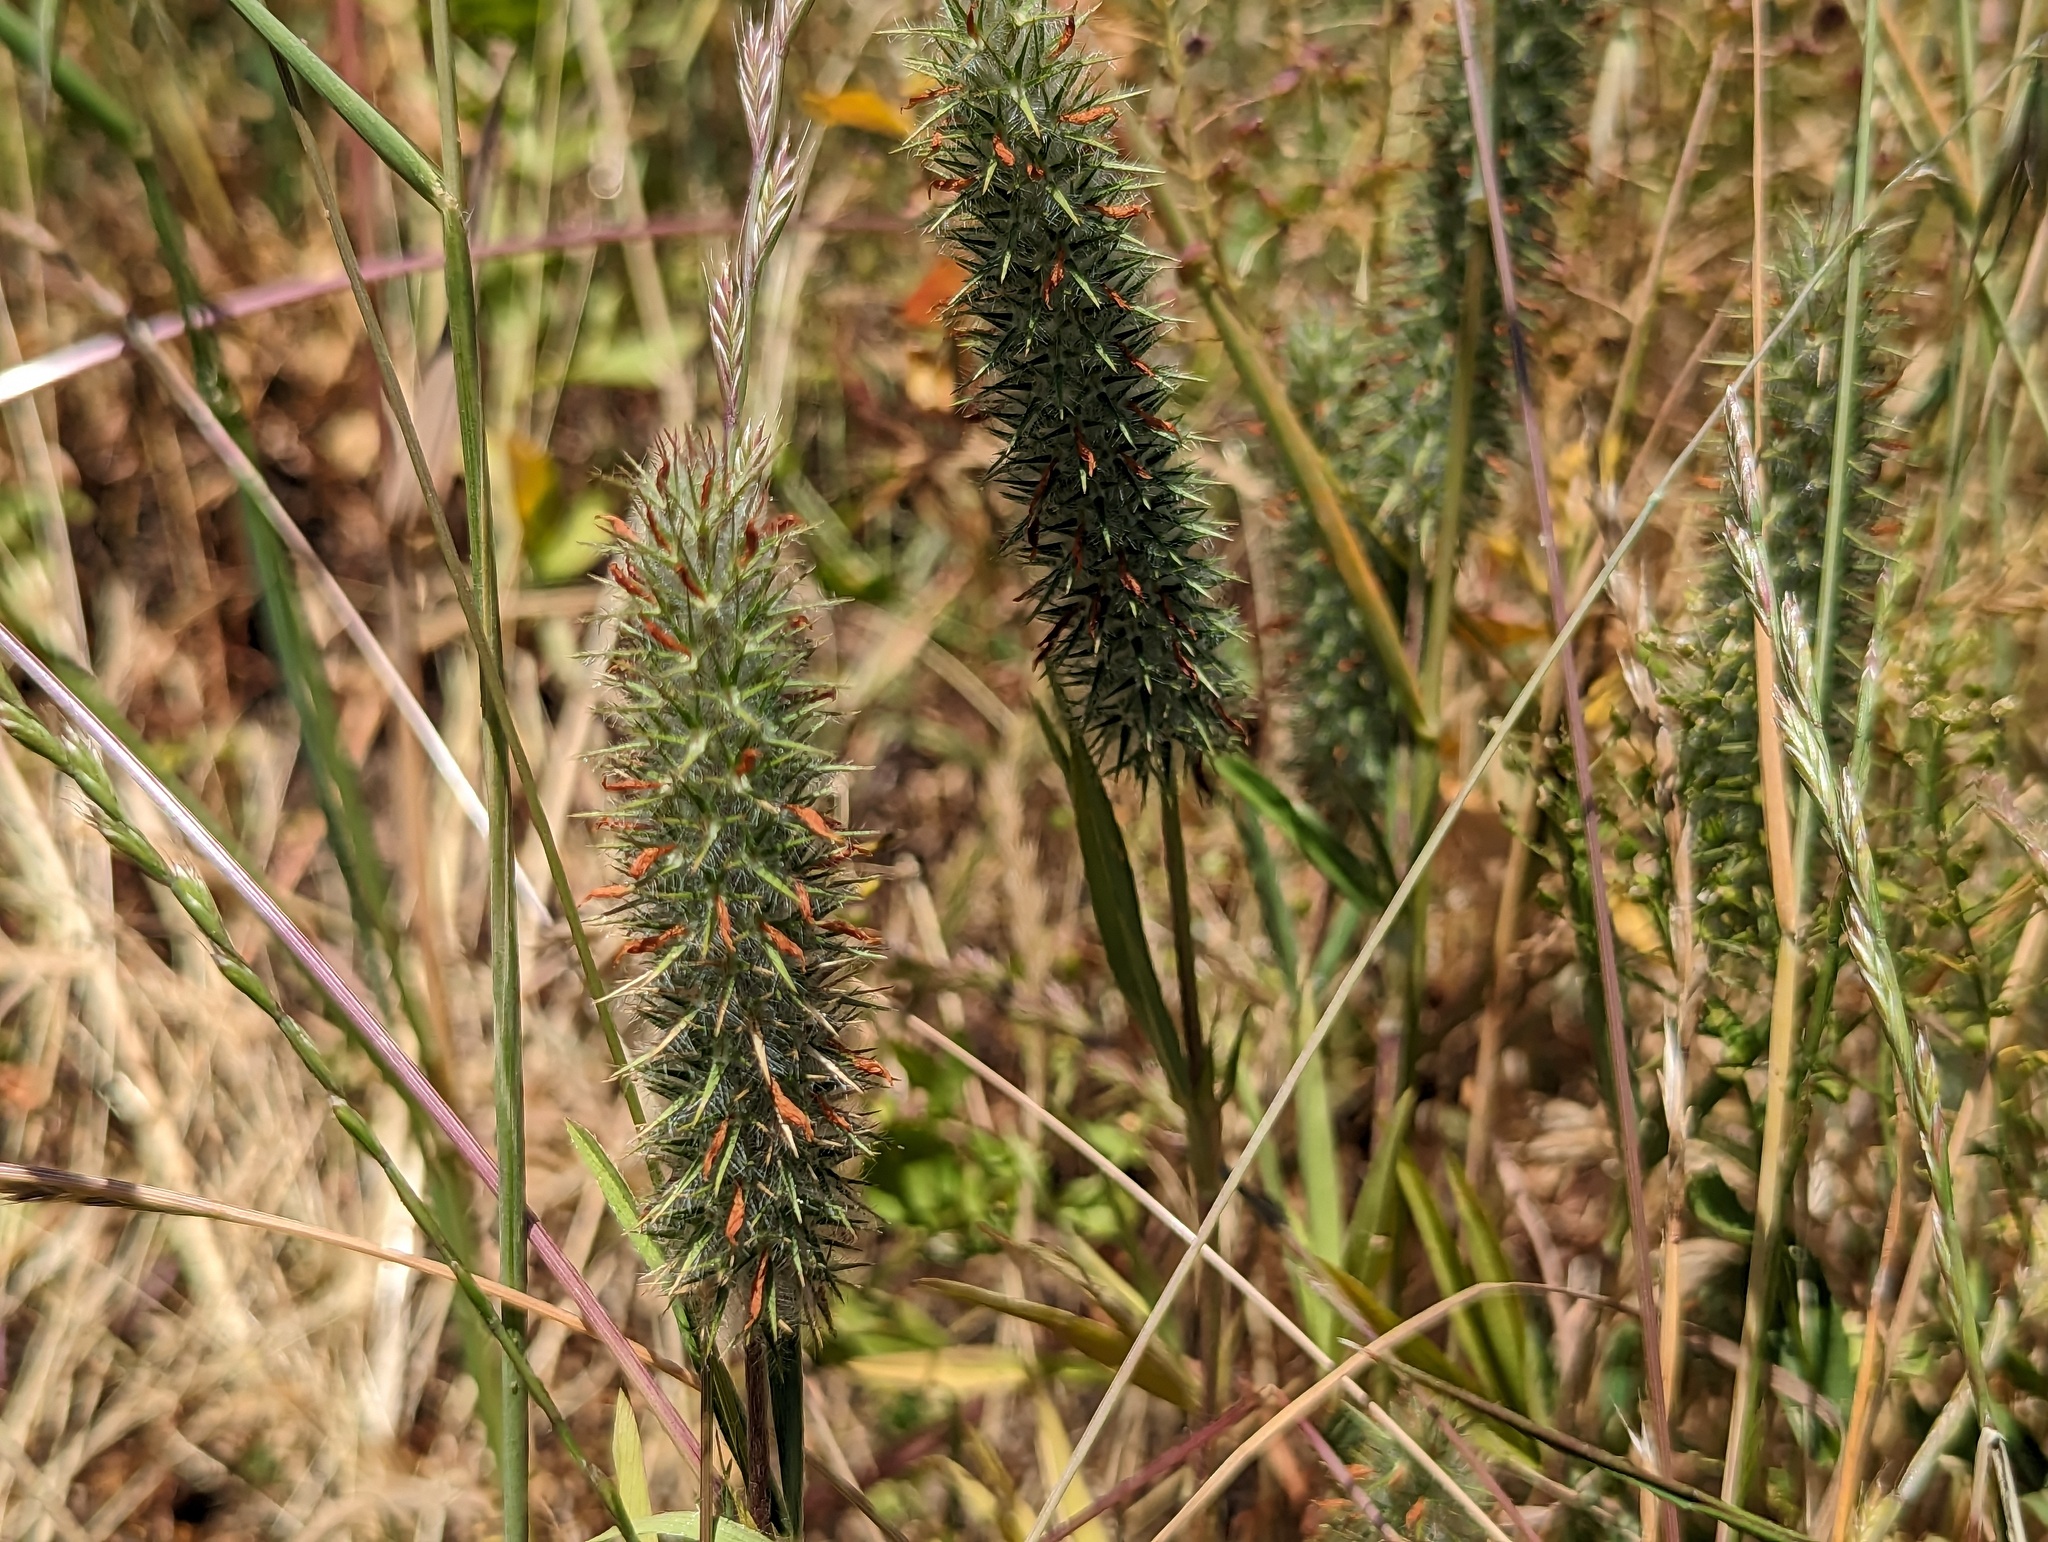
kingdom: Plantae
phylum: Tracheophyta
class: Magnoliopsida
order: Fabales
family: Fabaceae
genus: Trifolium
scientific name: Trifolium angustifolium
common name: Narrow clover
